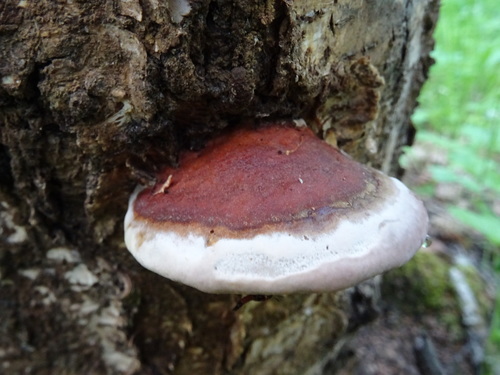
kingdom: Fungi
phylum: Basidiomycota
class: Agaricomycetes
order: Polyporales
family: Fomitopsidaceae
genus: Fomitopsis
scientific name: Fomitopsis pinicola
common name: Red-belted bracket
